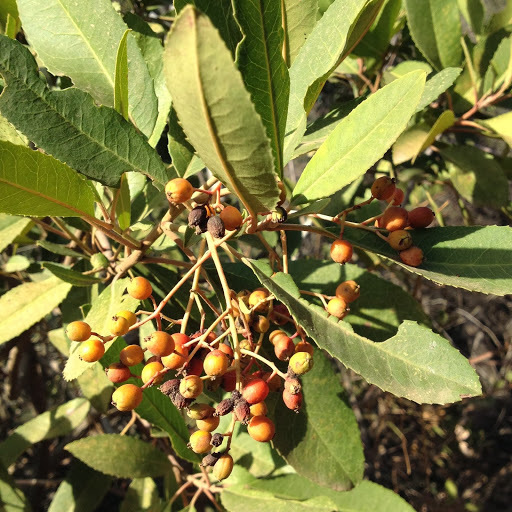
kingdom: Plantae
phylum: Tracheophyta
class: Magnoliopsida
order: Rosales
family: Rosaceae
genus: Heteromeles
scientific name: Heteromeles arbutifolia
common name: California-holly
